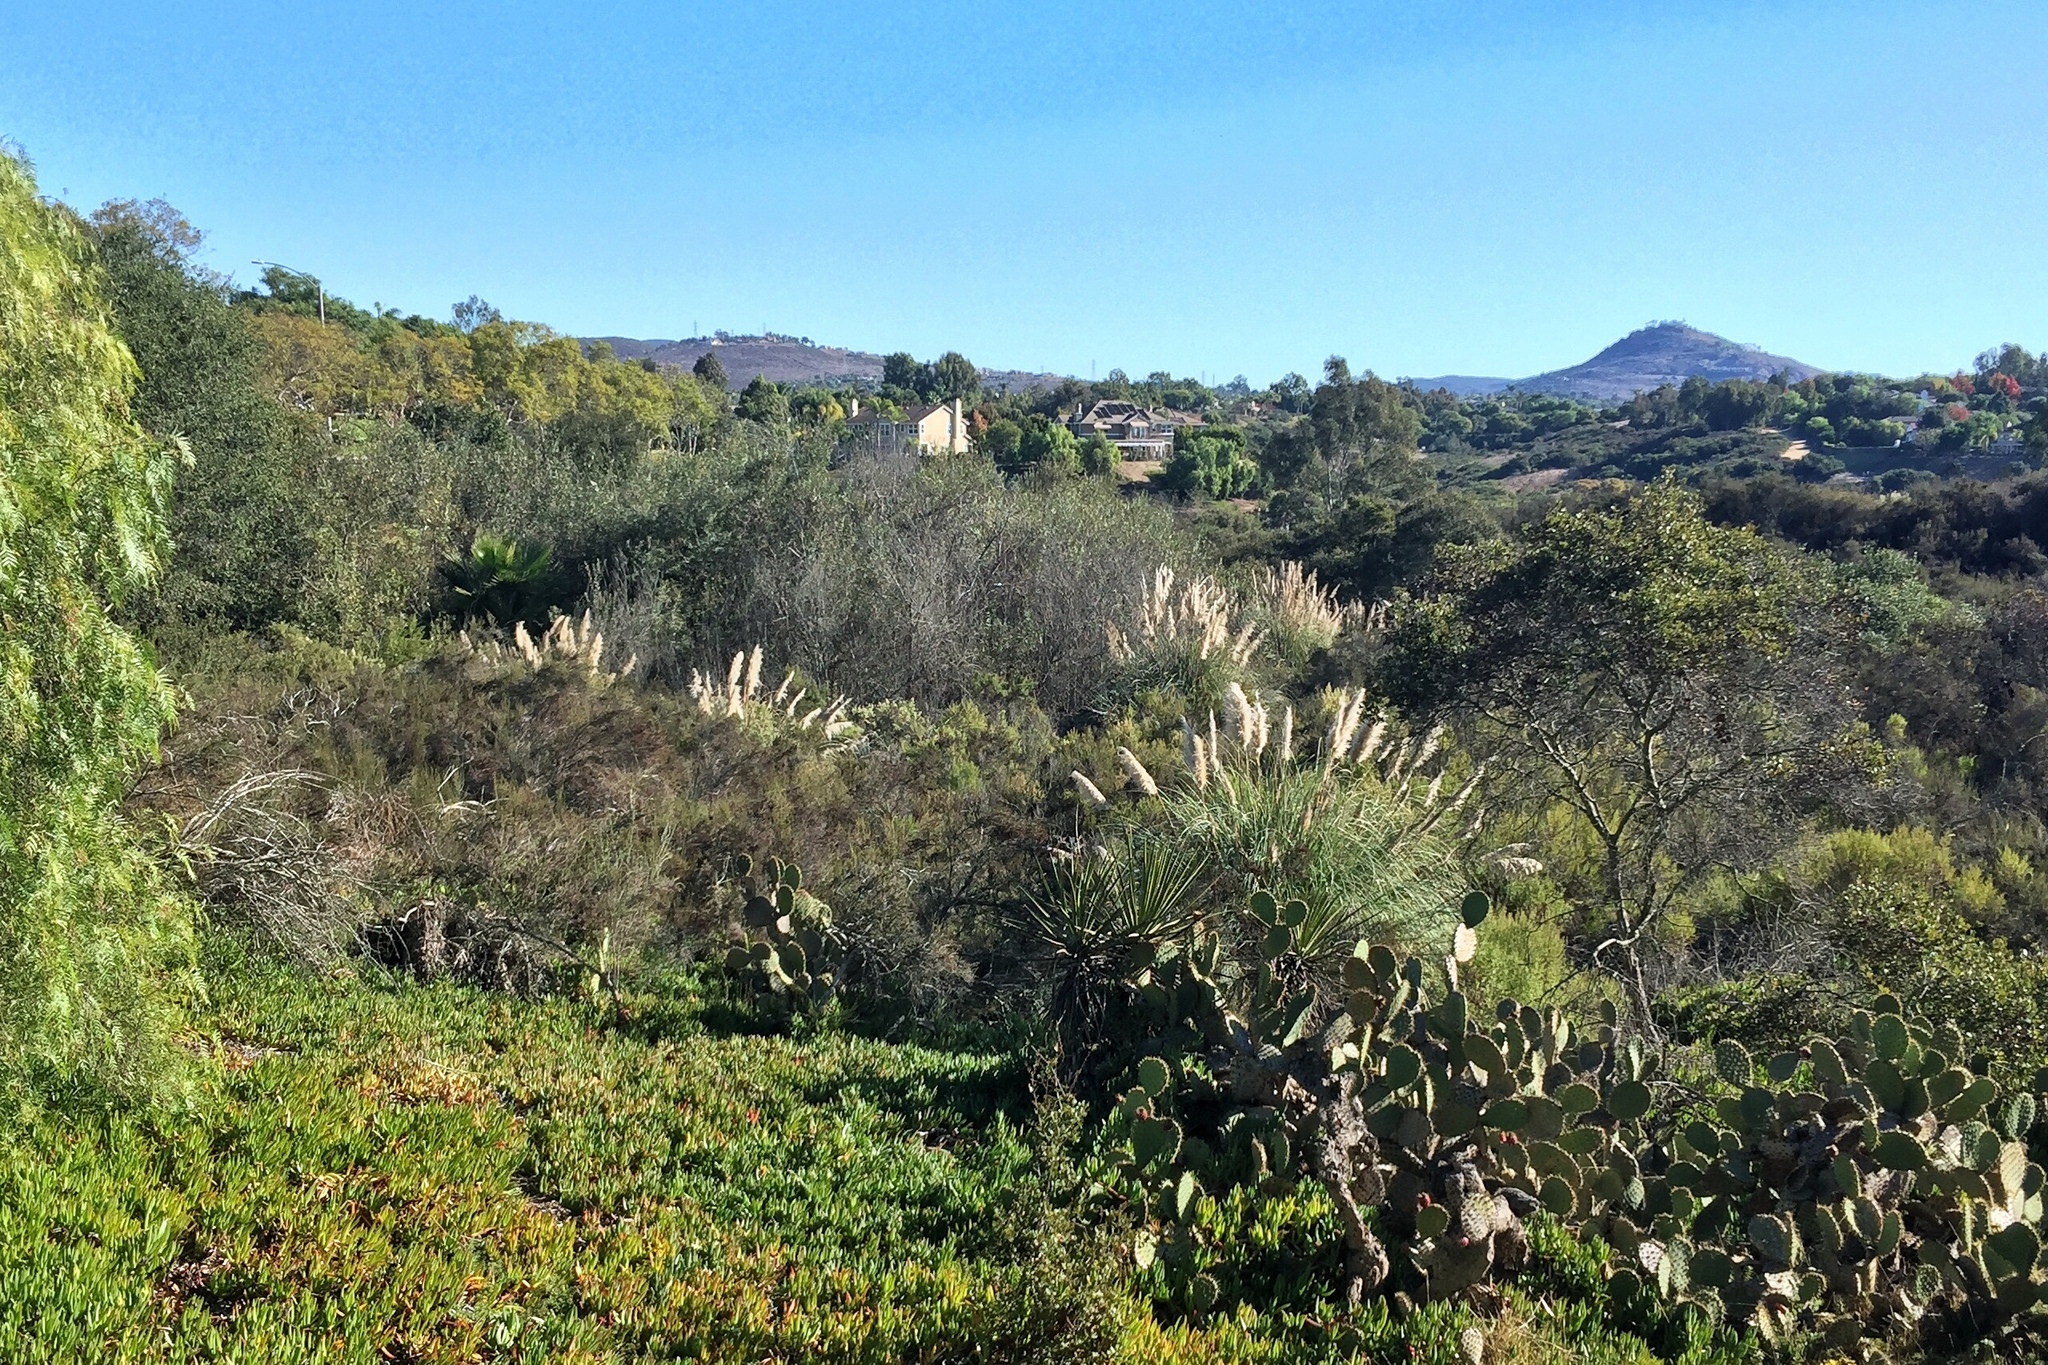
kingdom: Plantae
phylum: Tracheophyta
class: Liliopsida
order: Poales
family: Poaceae
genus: Cortaderia
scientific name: Cortaderia selloana
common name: Uruguayan pampas grass
